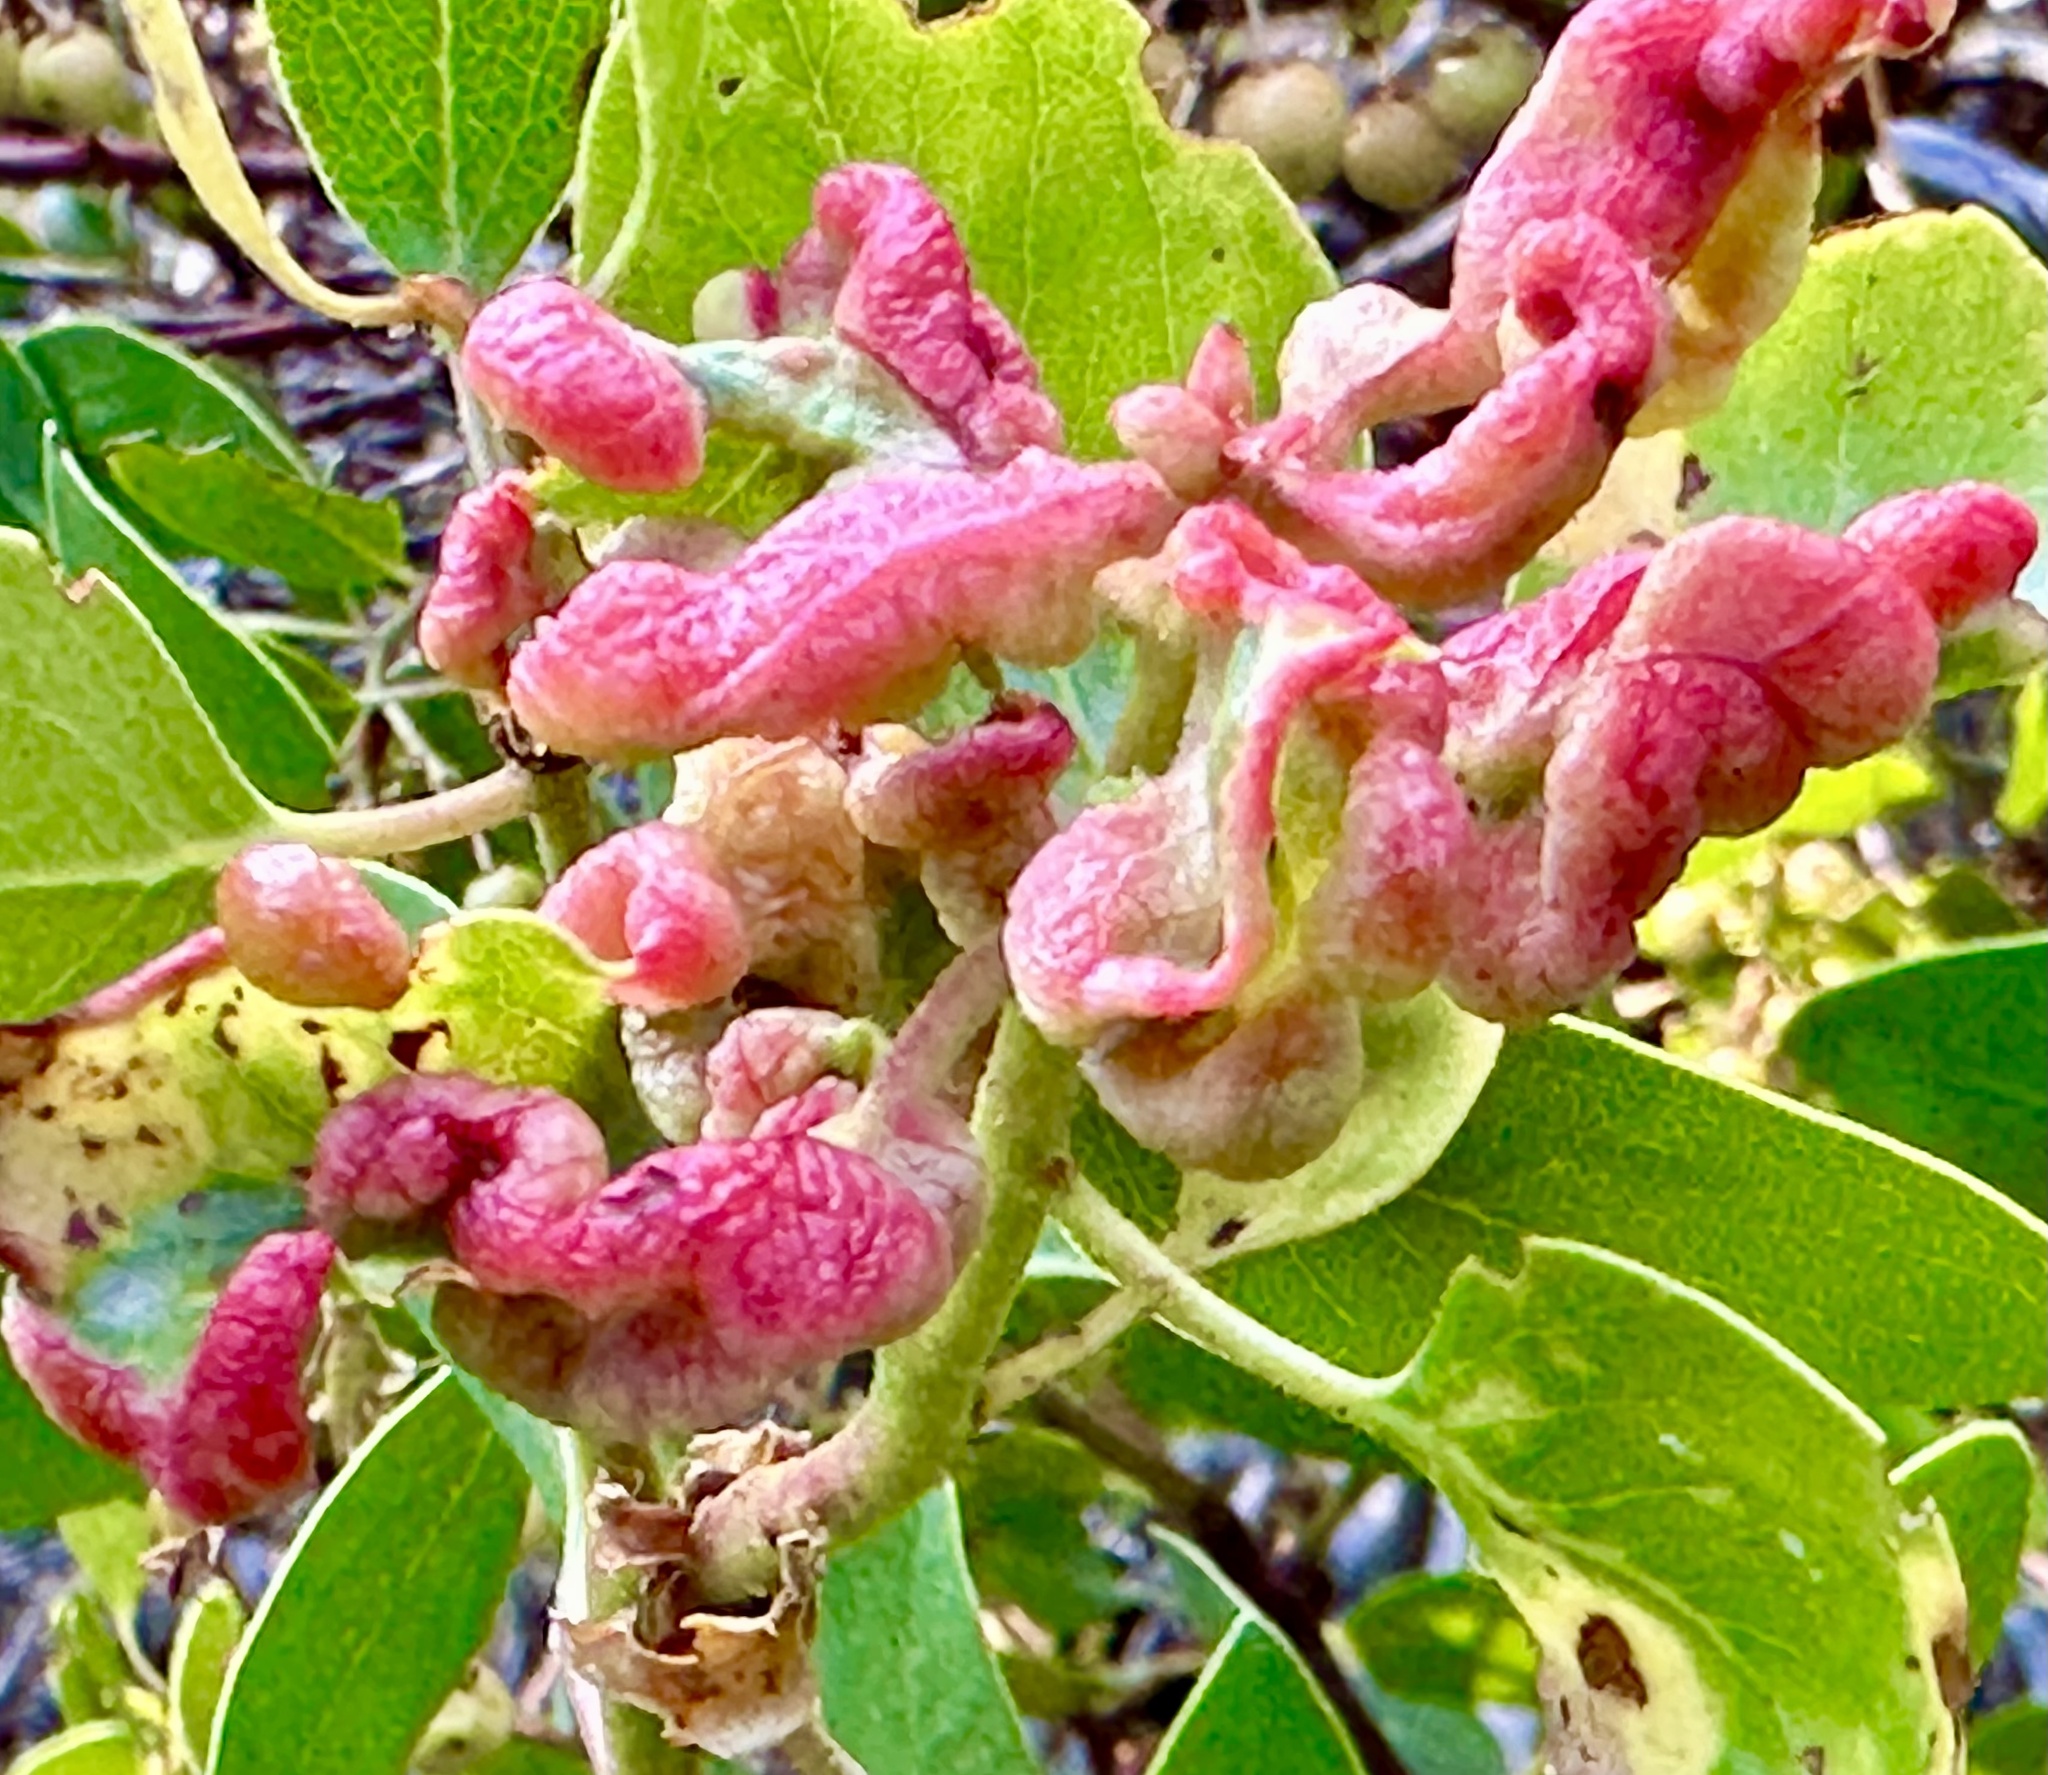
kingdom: Animalia
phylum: Arthropoda
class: Insecta
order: Hemiptera
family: Aphididae
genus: Tamalia
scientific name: Tamalia coweni
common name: Manzanita leafgall aphid
